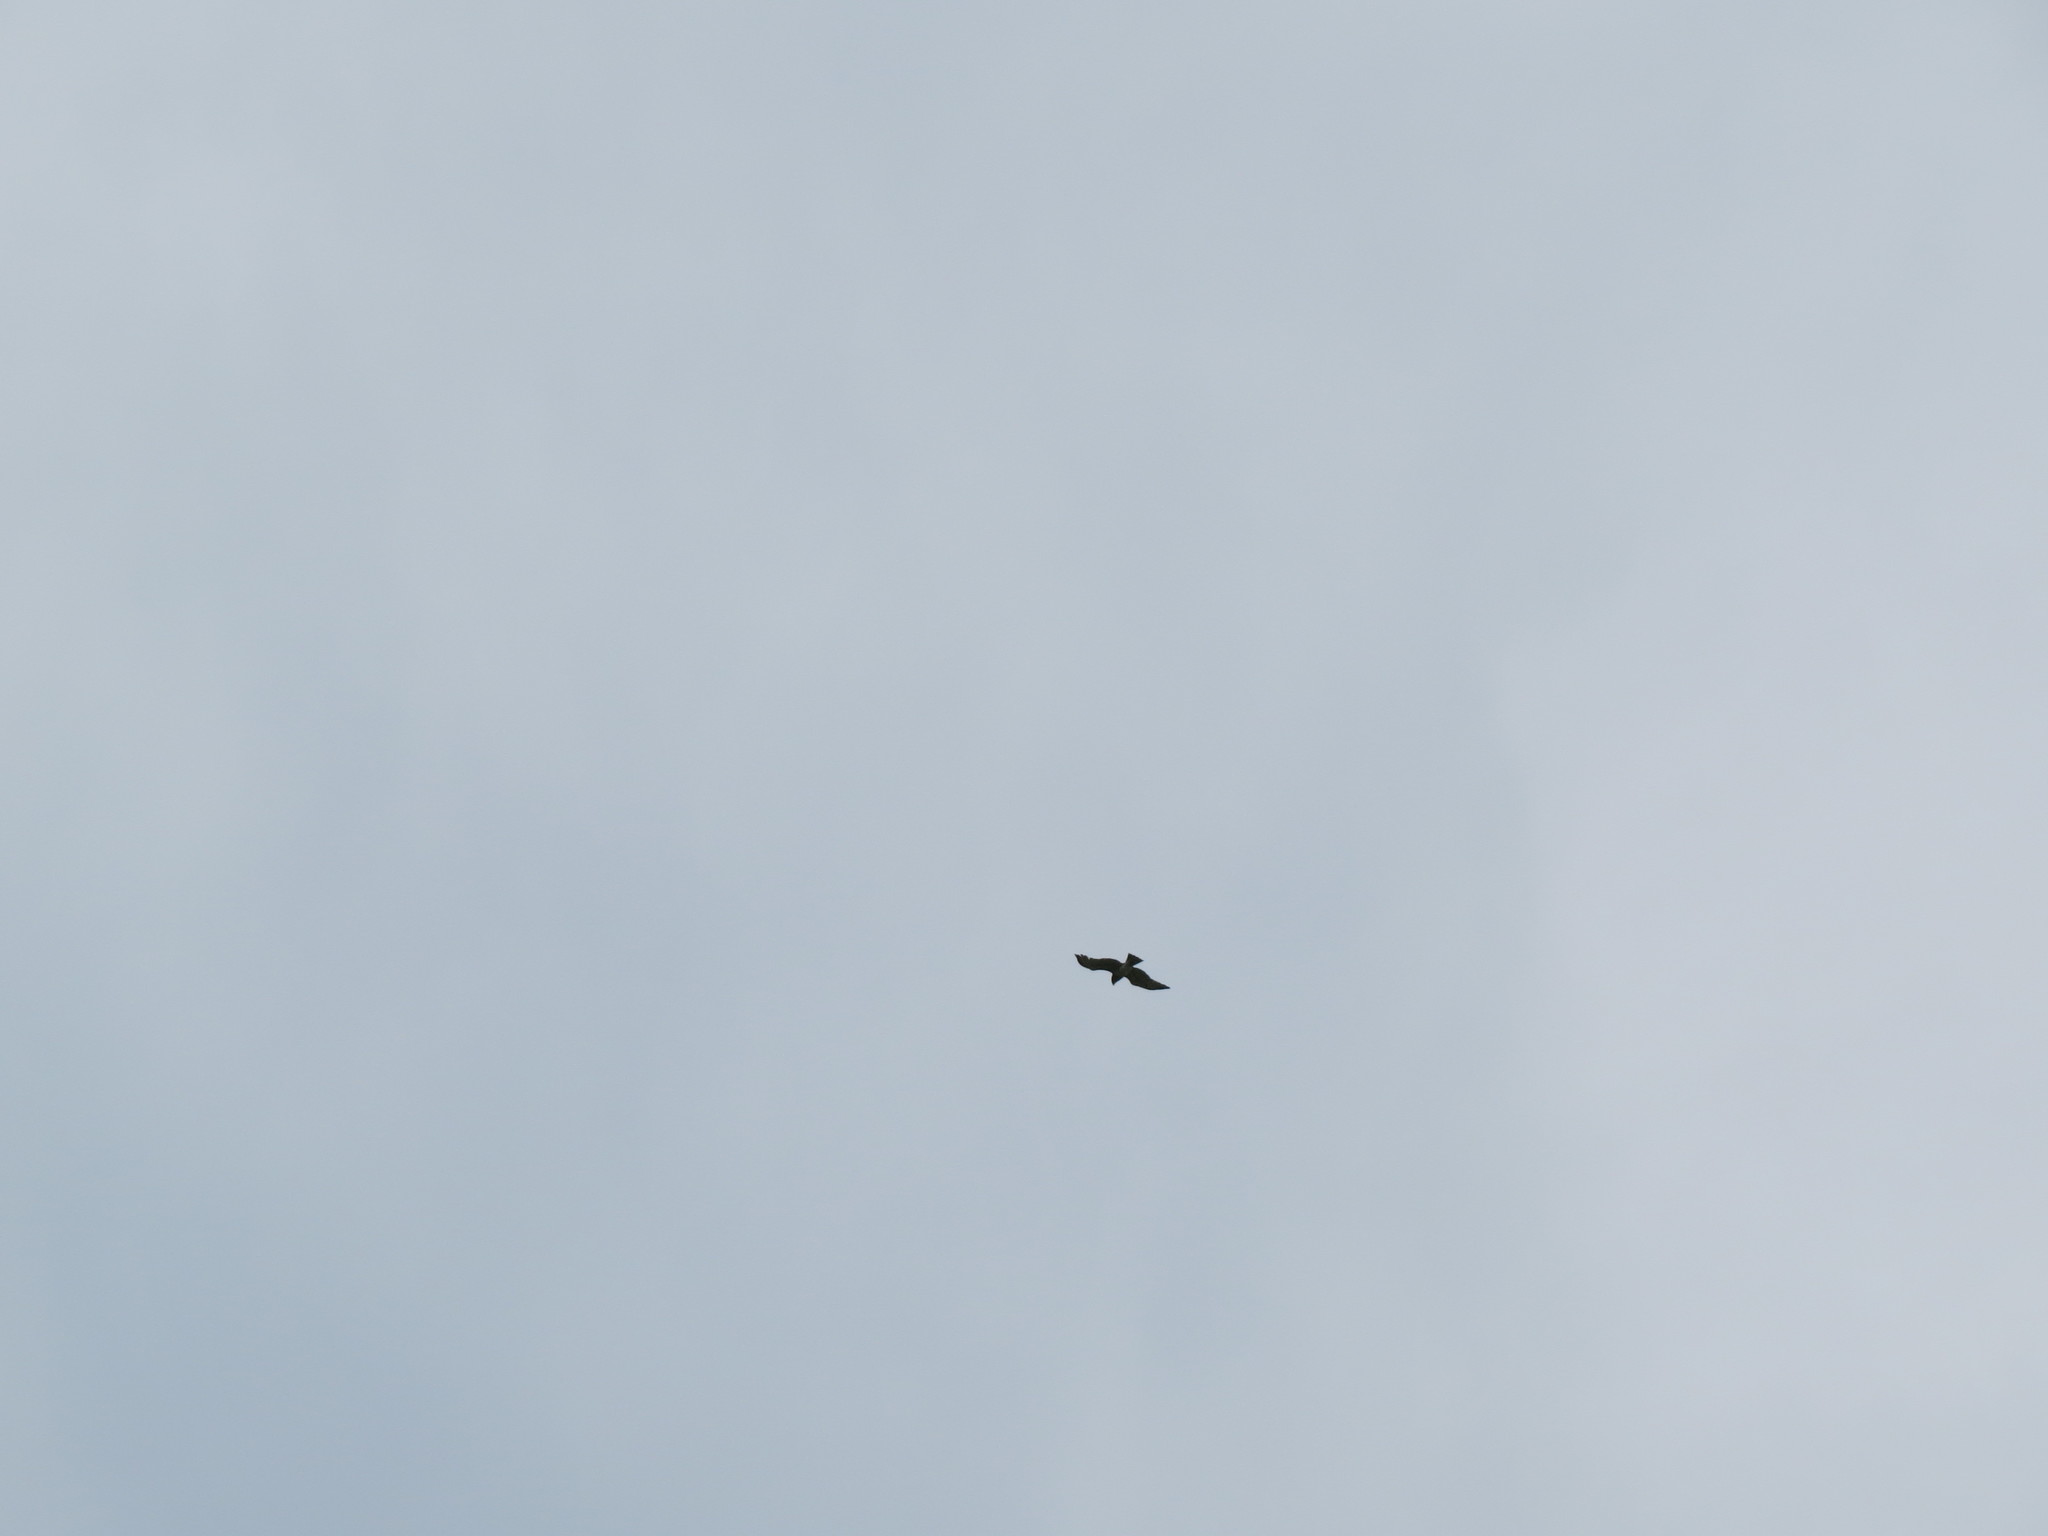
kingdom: Animalia
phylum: Chordata
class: Aves
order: Accipitriformes
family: Accipitridae
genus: Milvus
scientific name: Milvus migrans
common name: Black kite
